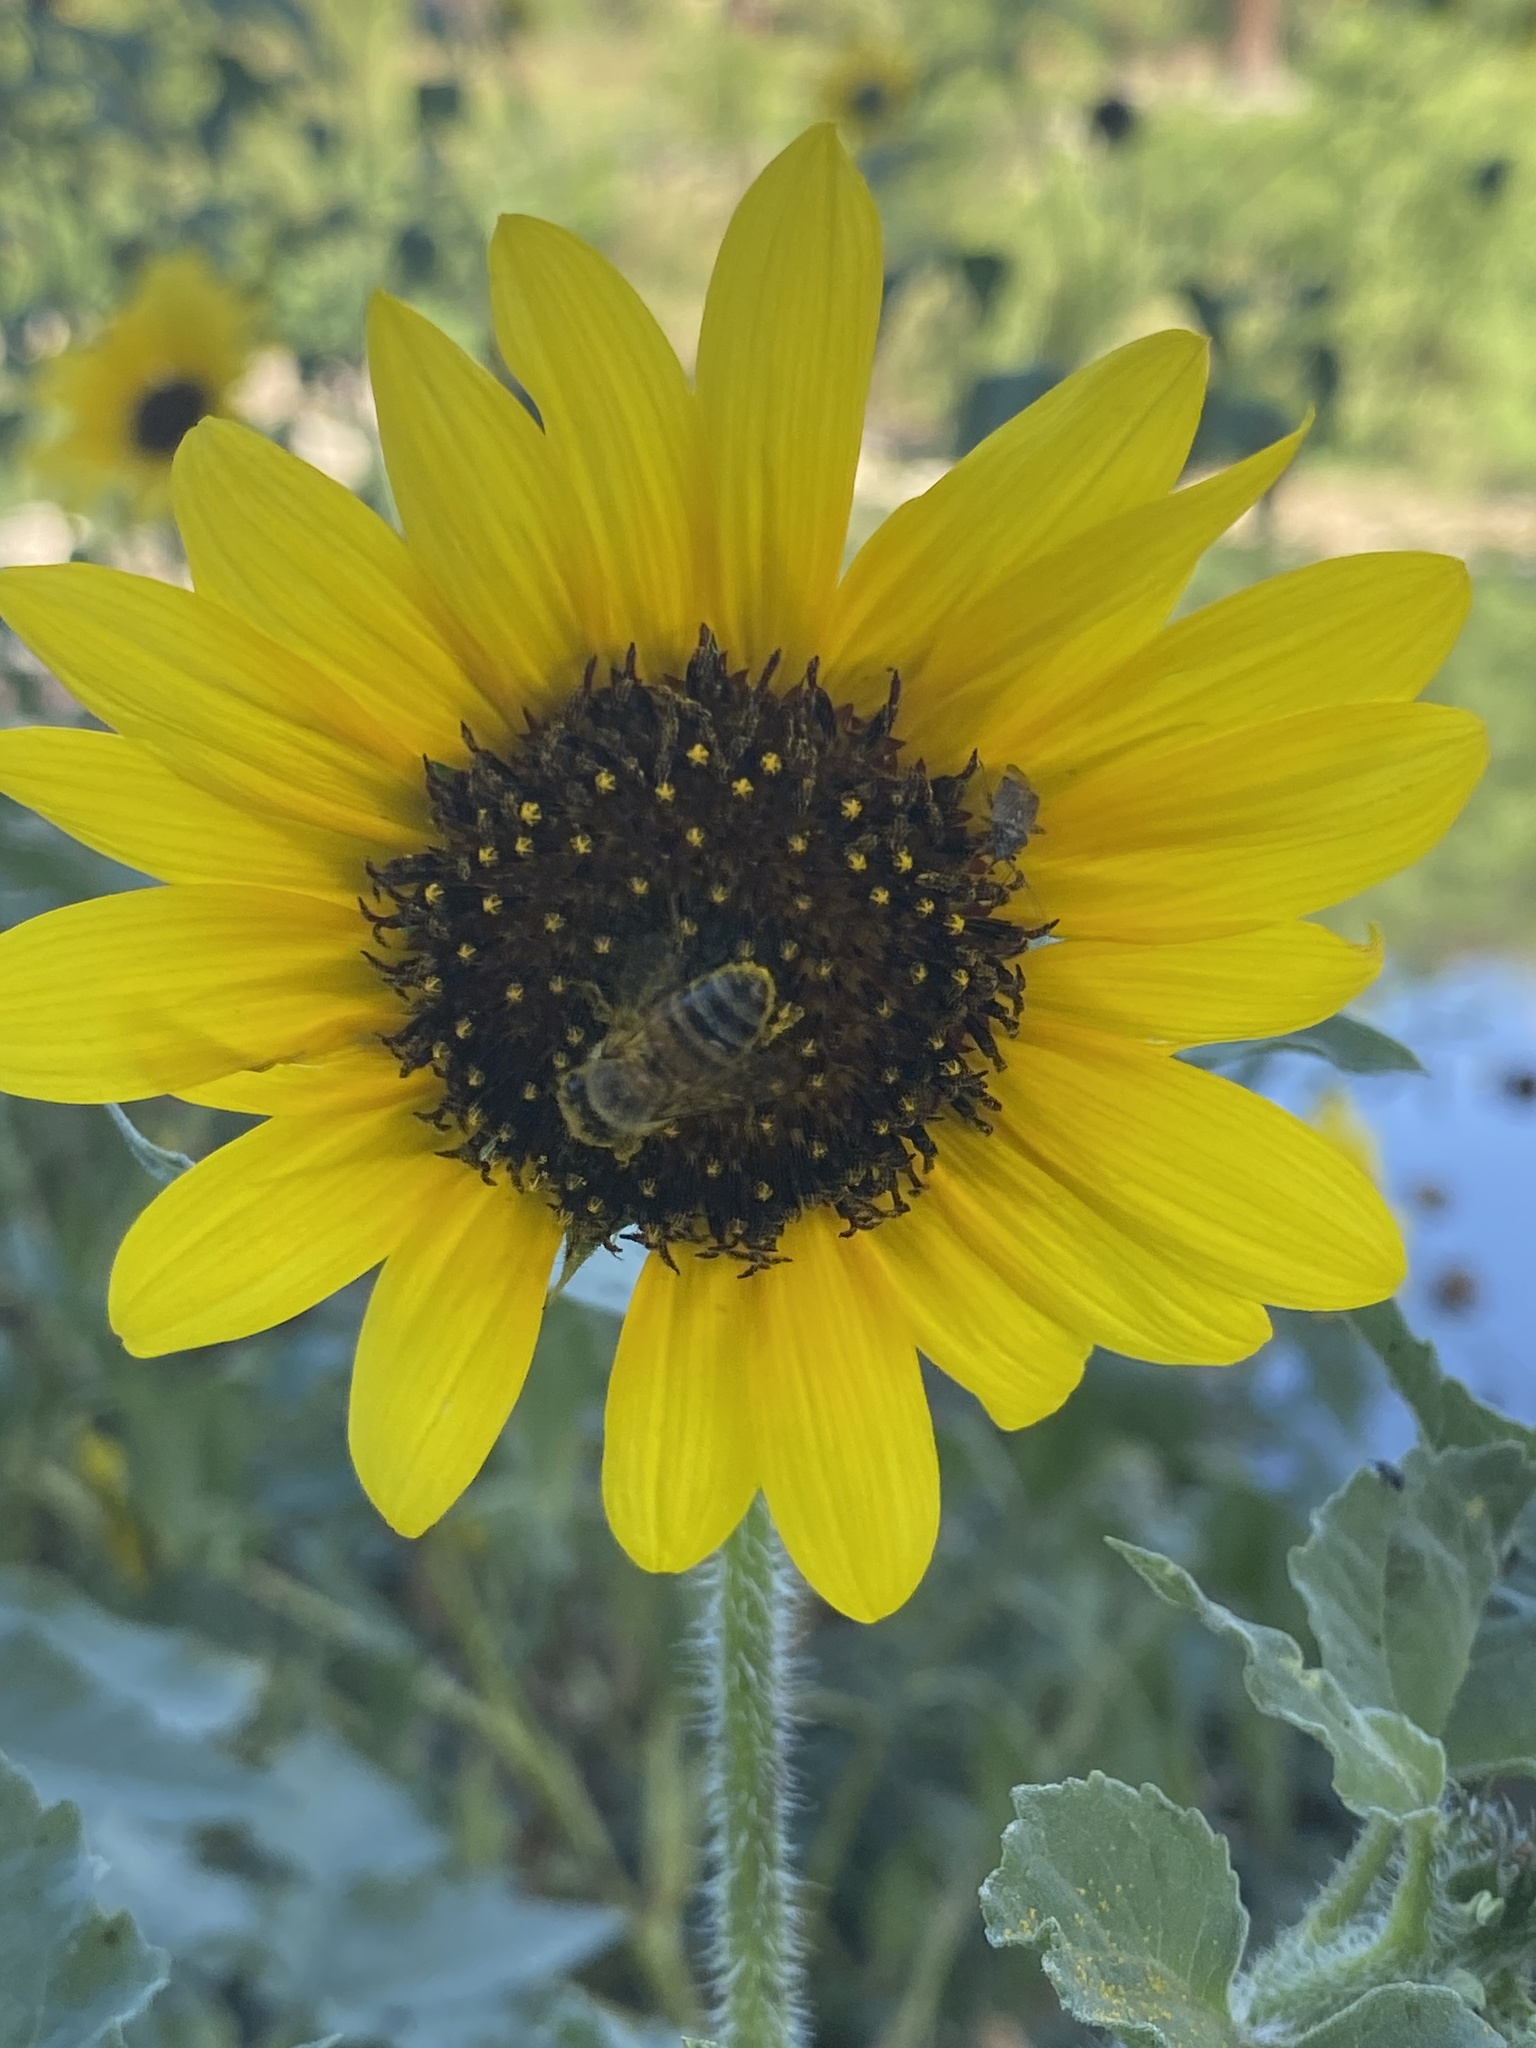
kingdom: Animalia
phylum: Arthropoda
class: Insecta
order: Hymenoptera
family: Apidae
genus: Apis
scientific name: Apis mellifera
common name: Honey bee
